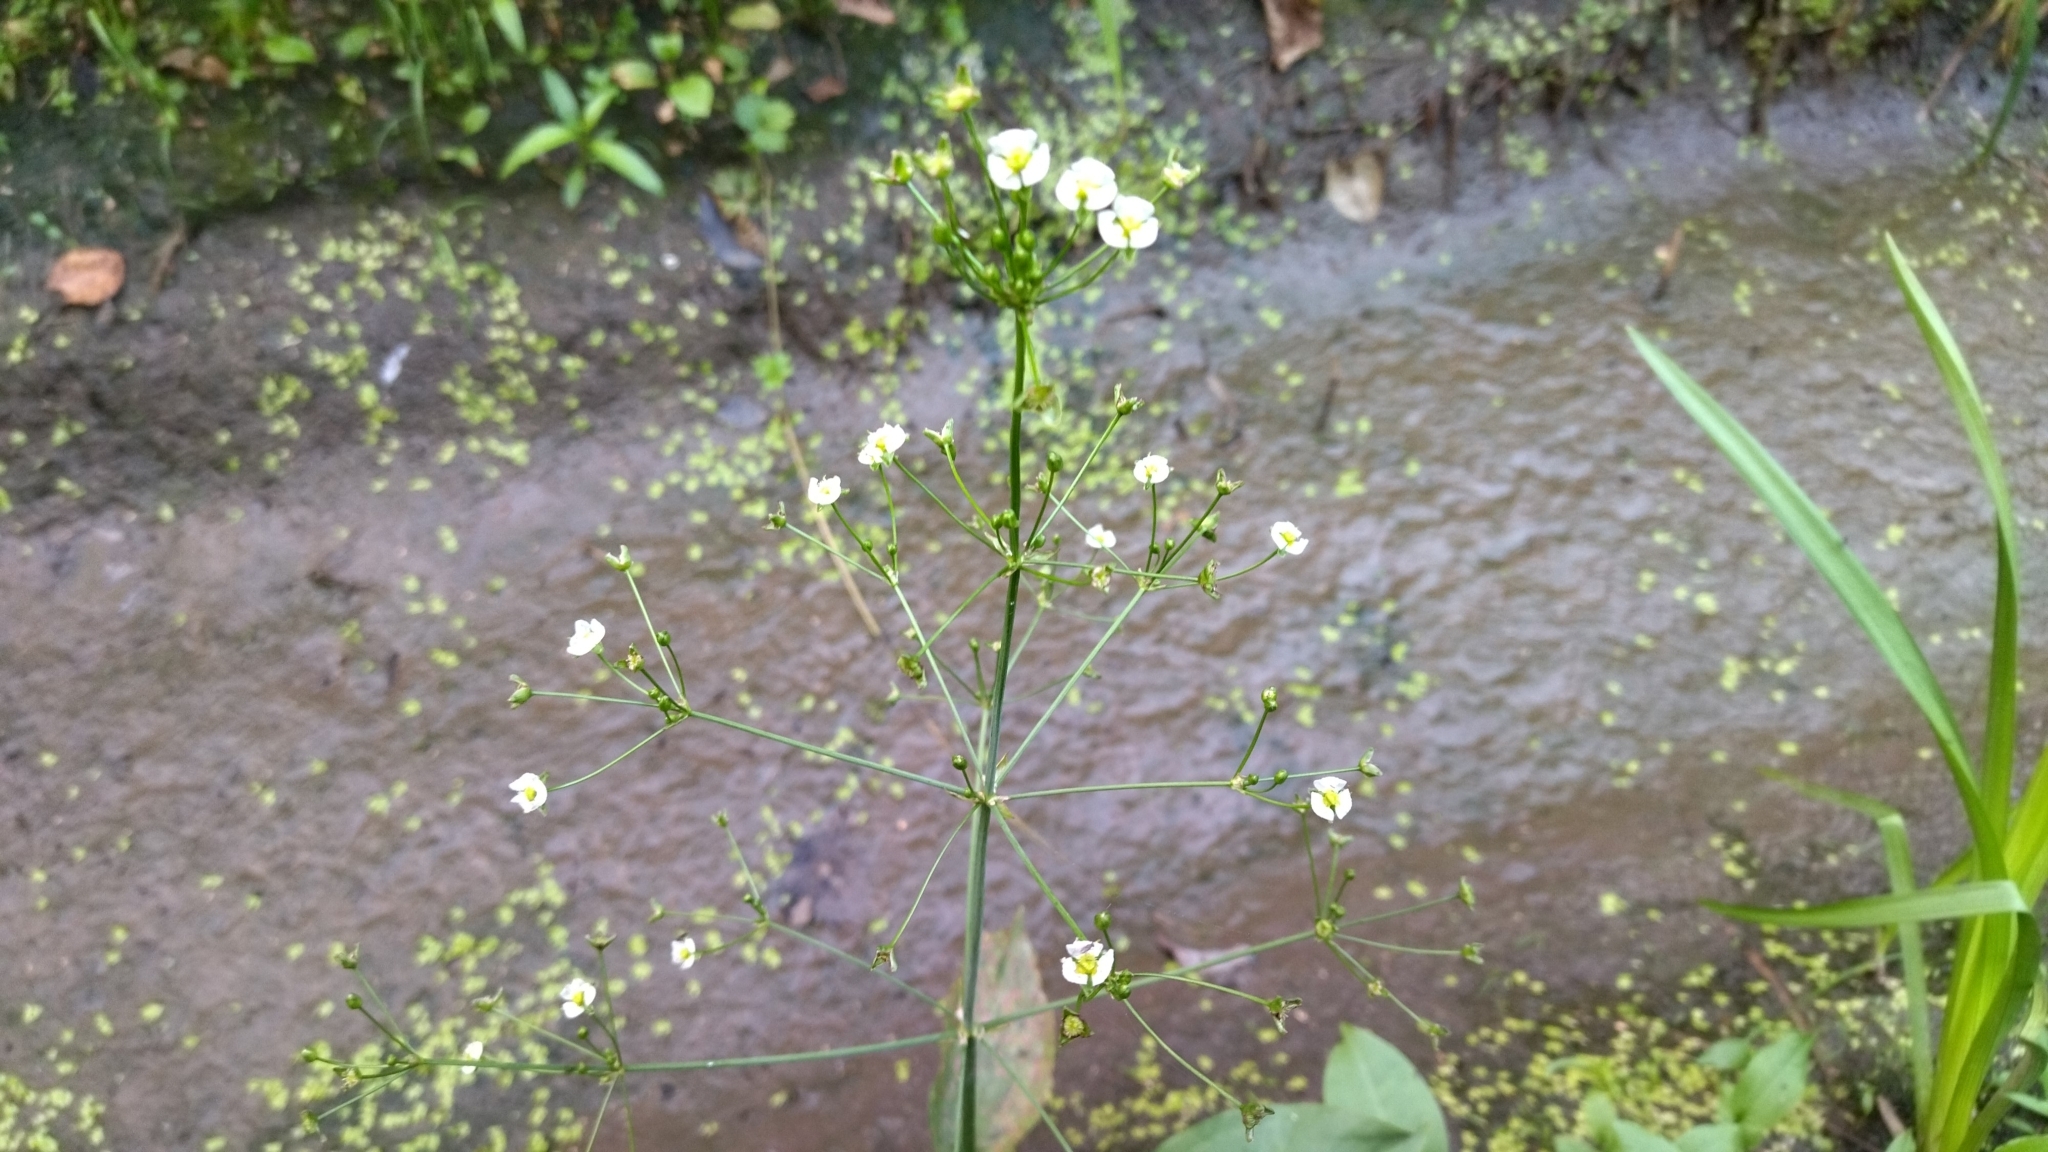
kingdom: Plantae
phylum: Tracheophyta
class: Liliopsida
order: Alismatales
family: Alismataceae
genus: Alisma
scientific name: Alisma plantago-aquatica
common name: Water-plantain
